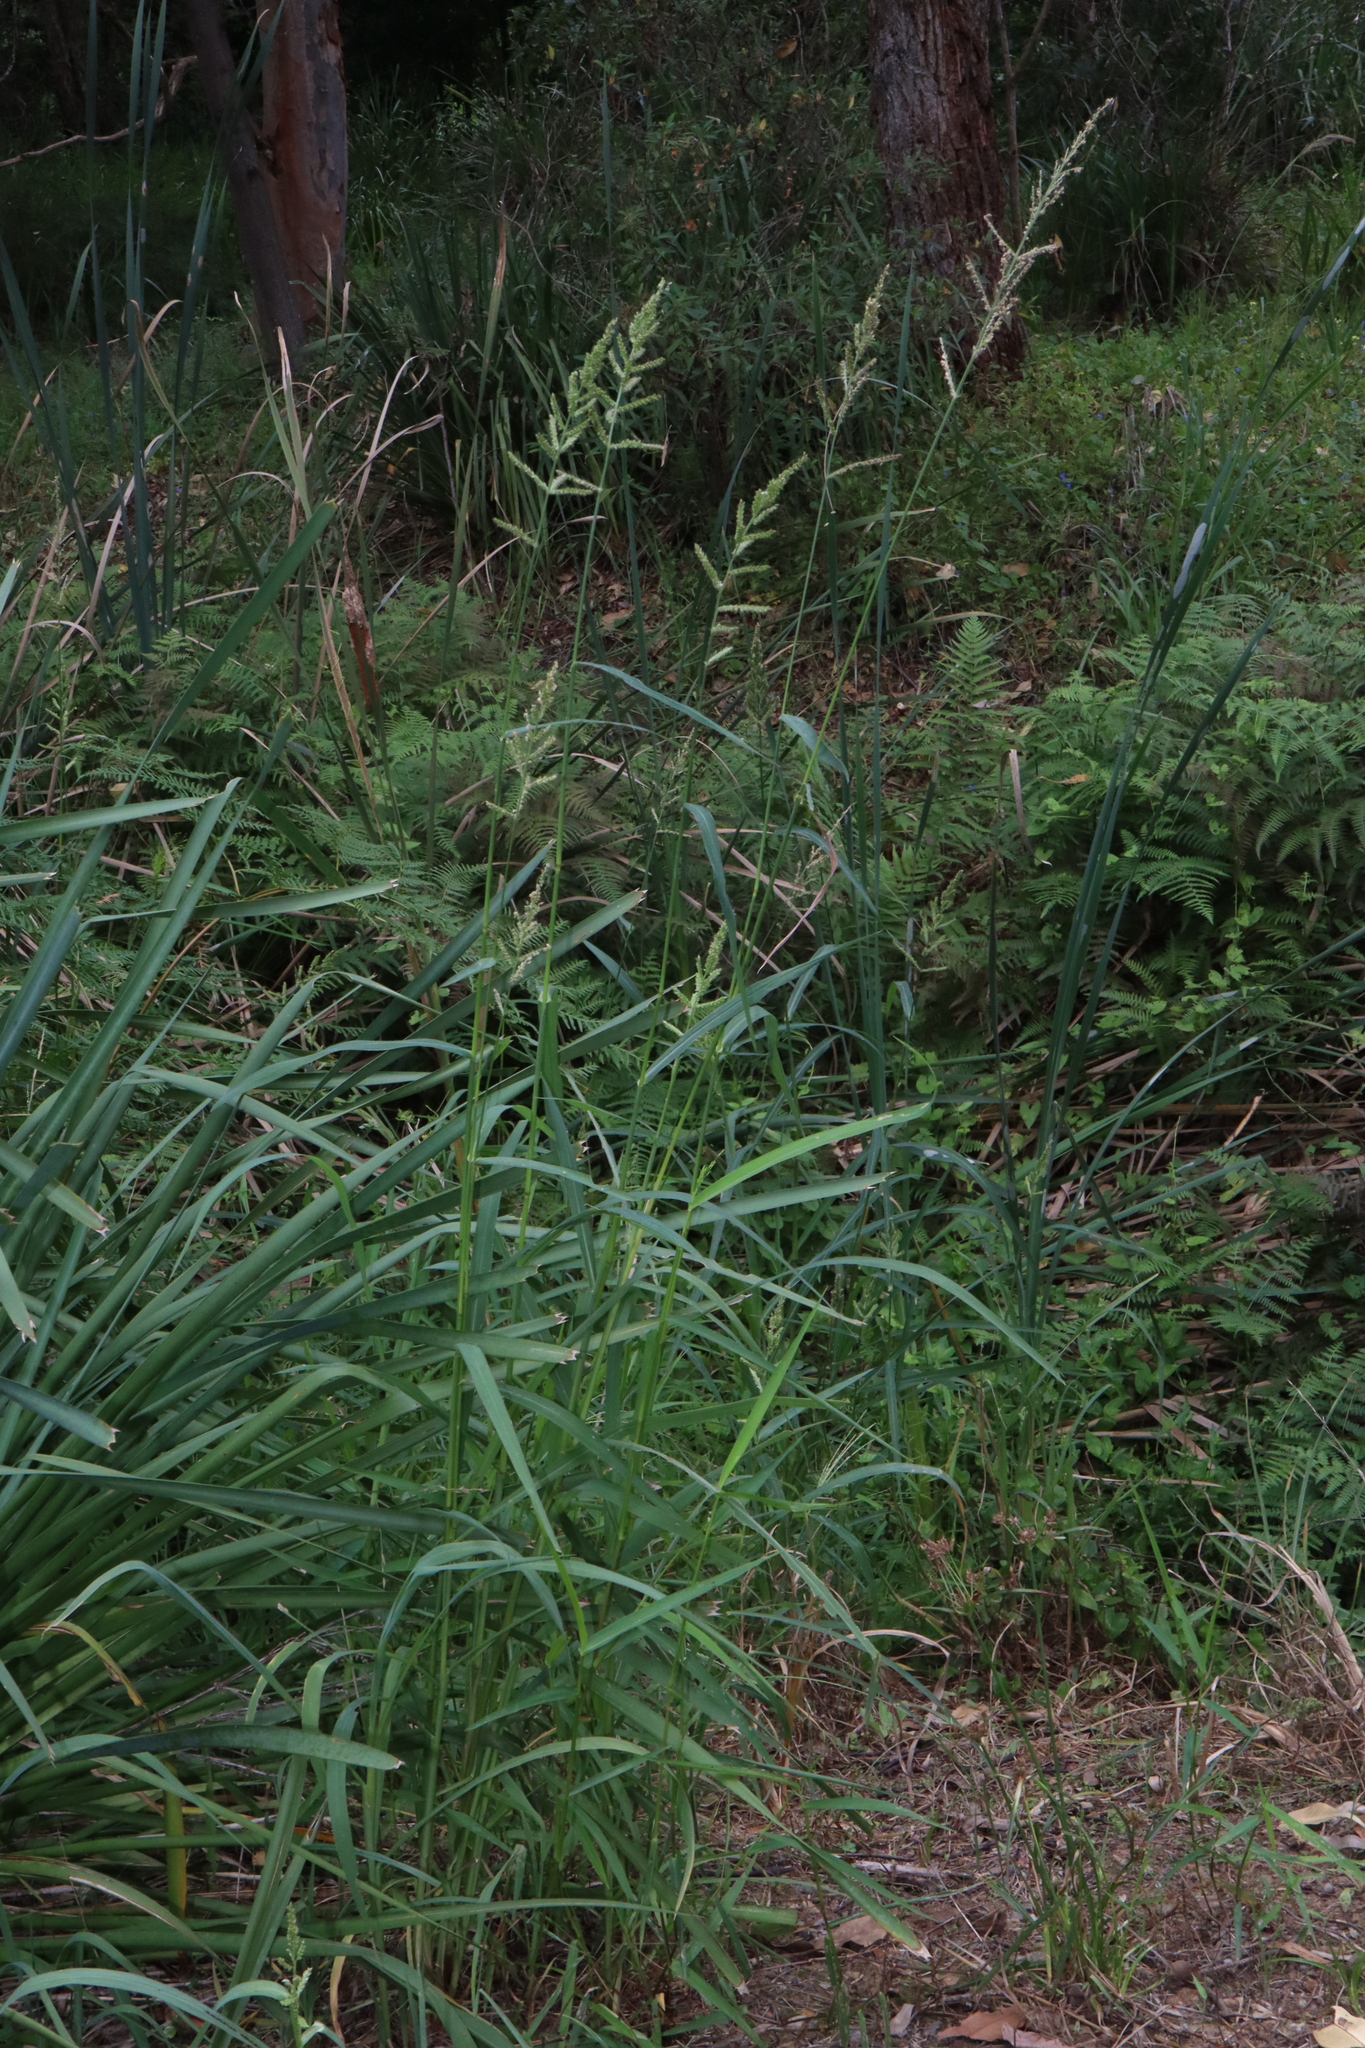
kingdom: Plantae
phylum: Tracheophyta
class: Liliopsida
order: Poales
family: Poaceae
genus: Echinochloa
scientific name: Echinochloa crus-galli
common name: Cockspur
